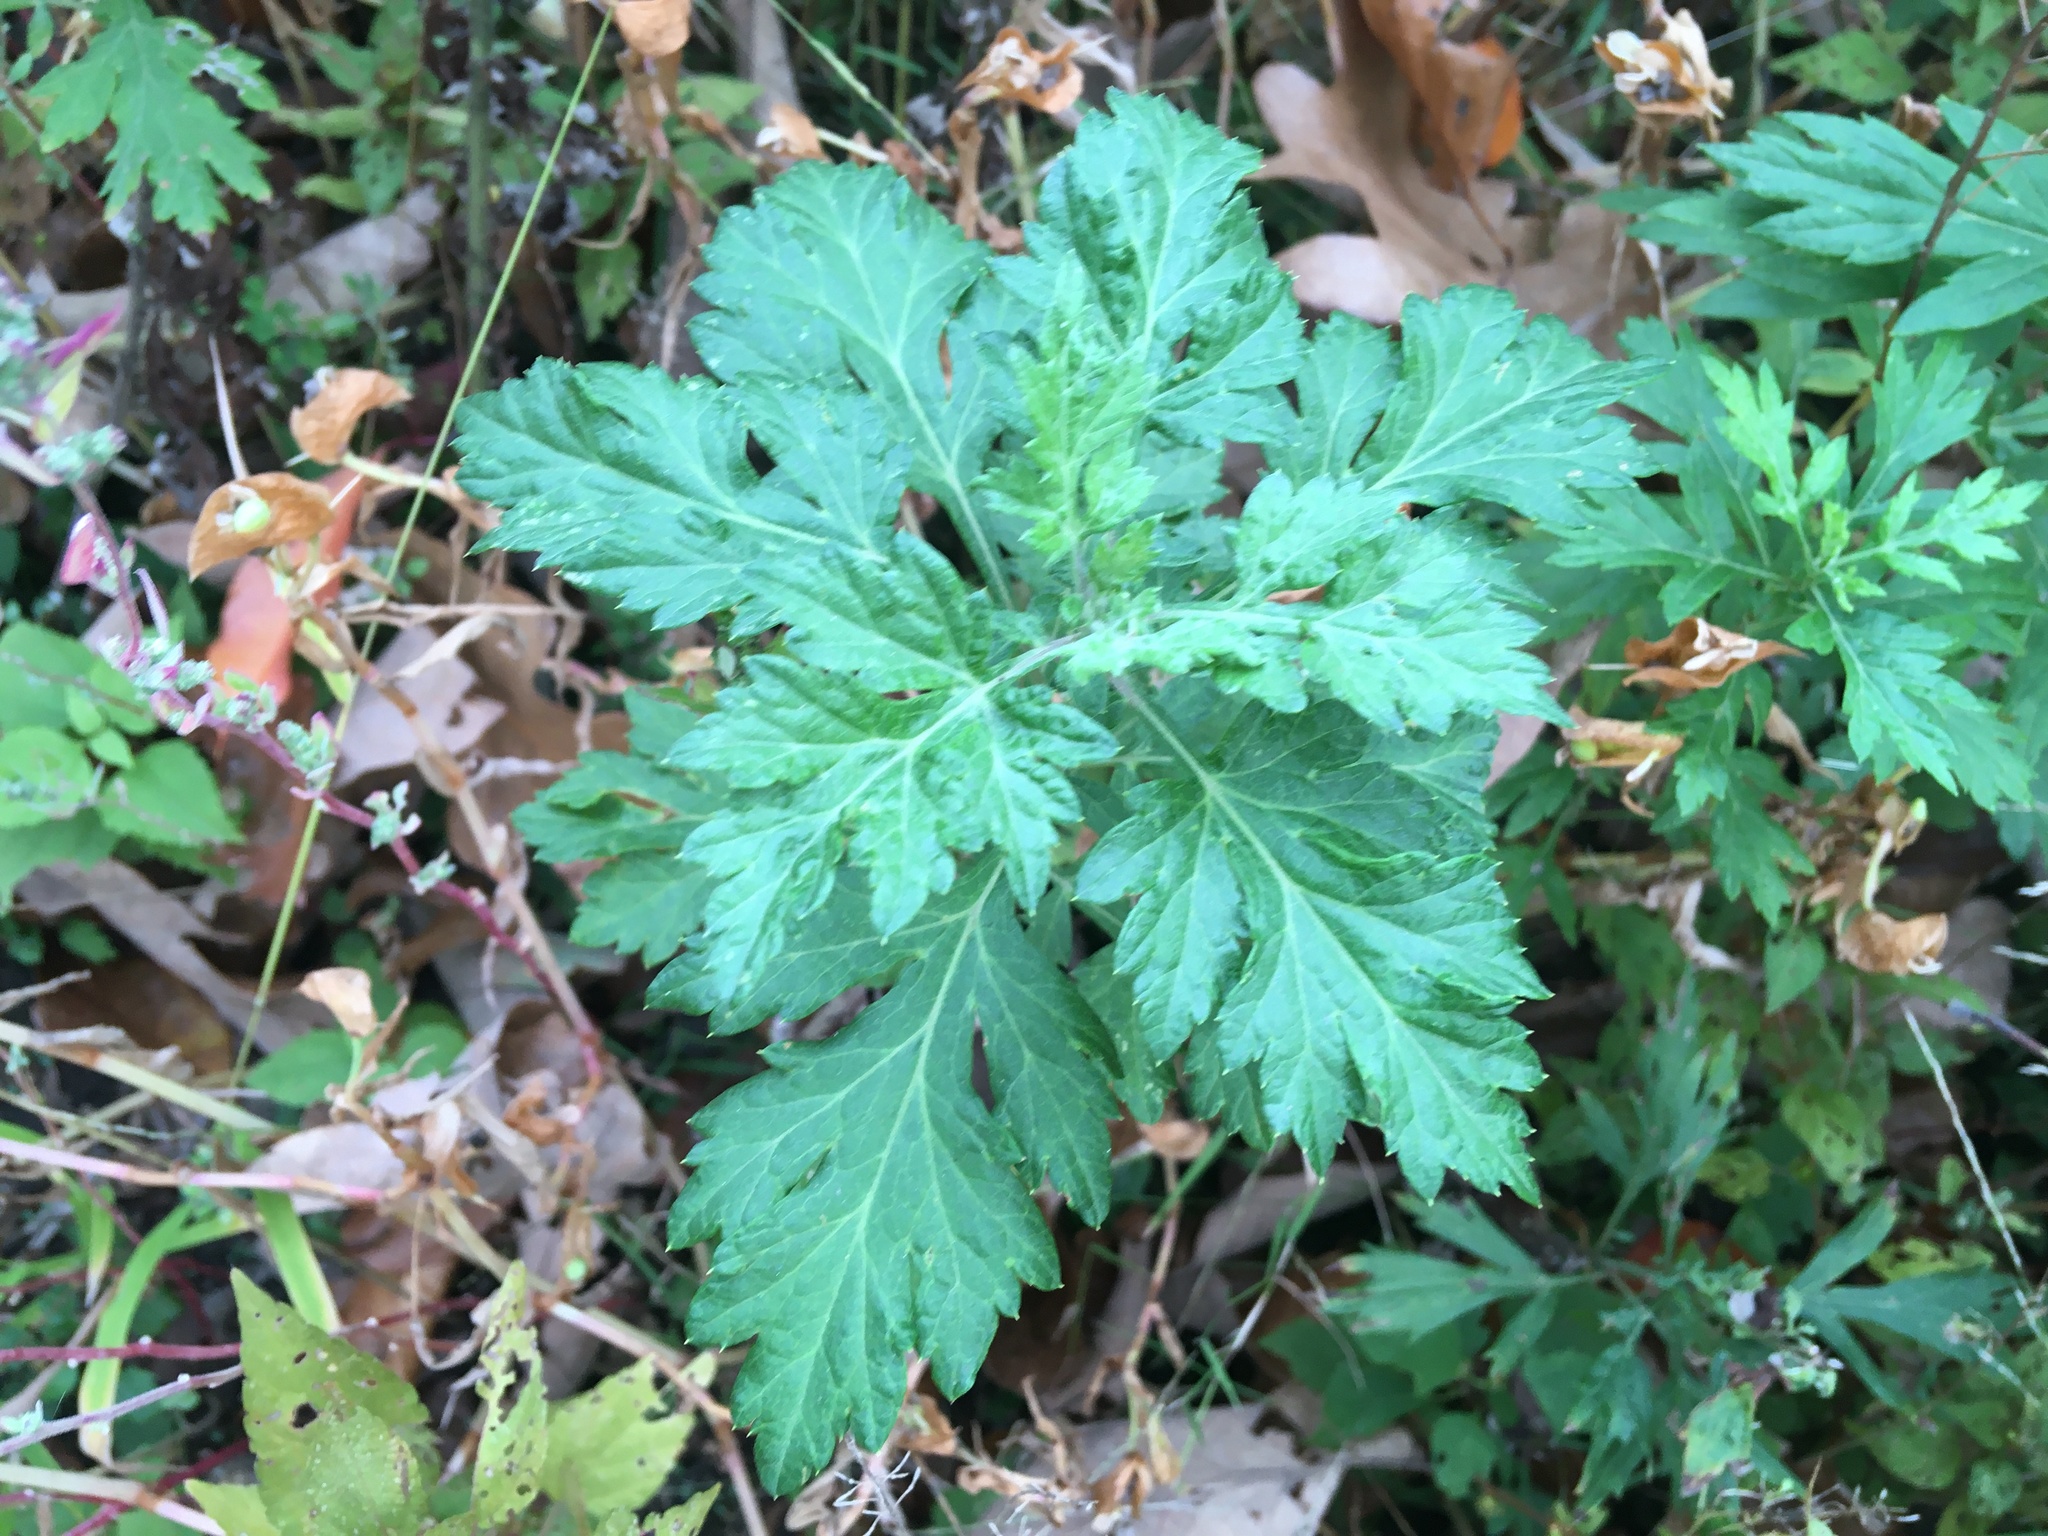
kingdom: Plantae
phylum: Tracheophyta
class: Magnoliopsida
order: Asterales
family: Asteraceae
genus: Artemisia
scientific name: Artemisia vulgaris
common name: Mugwort
